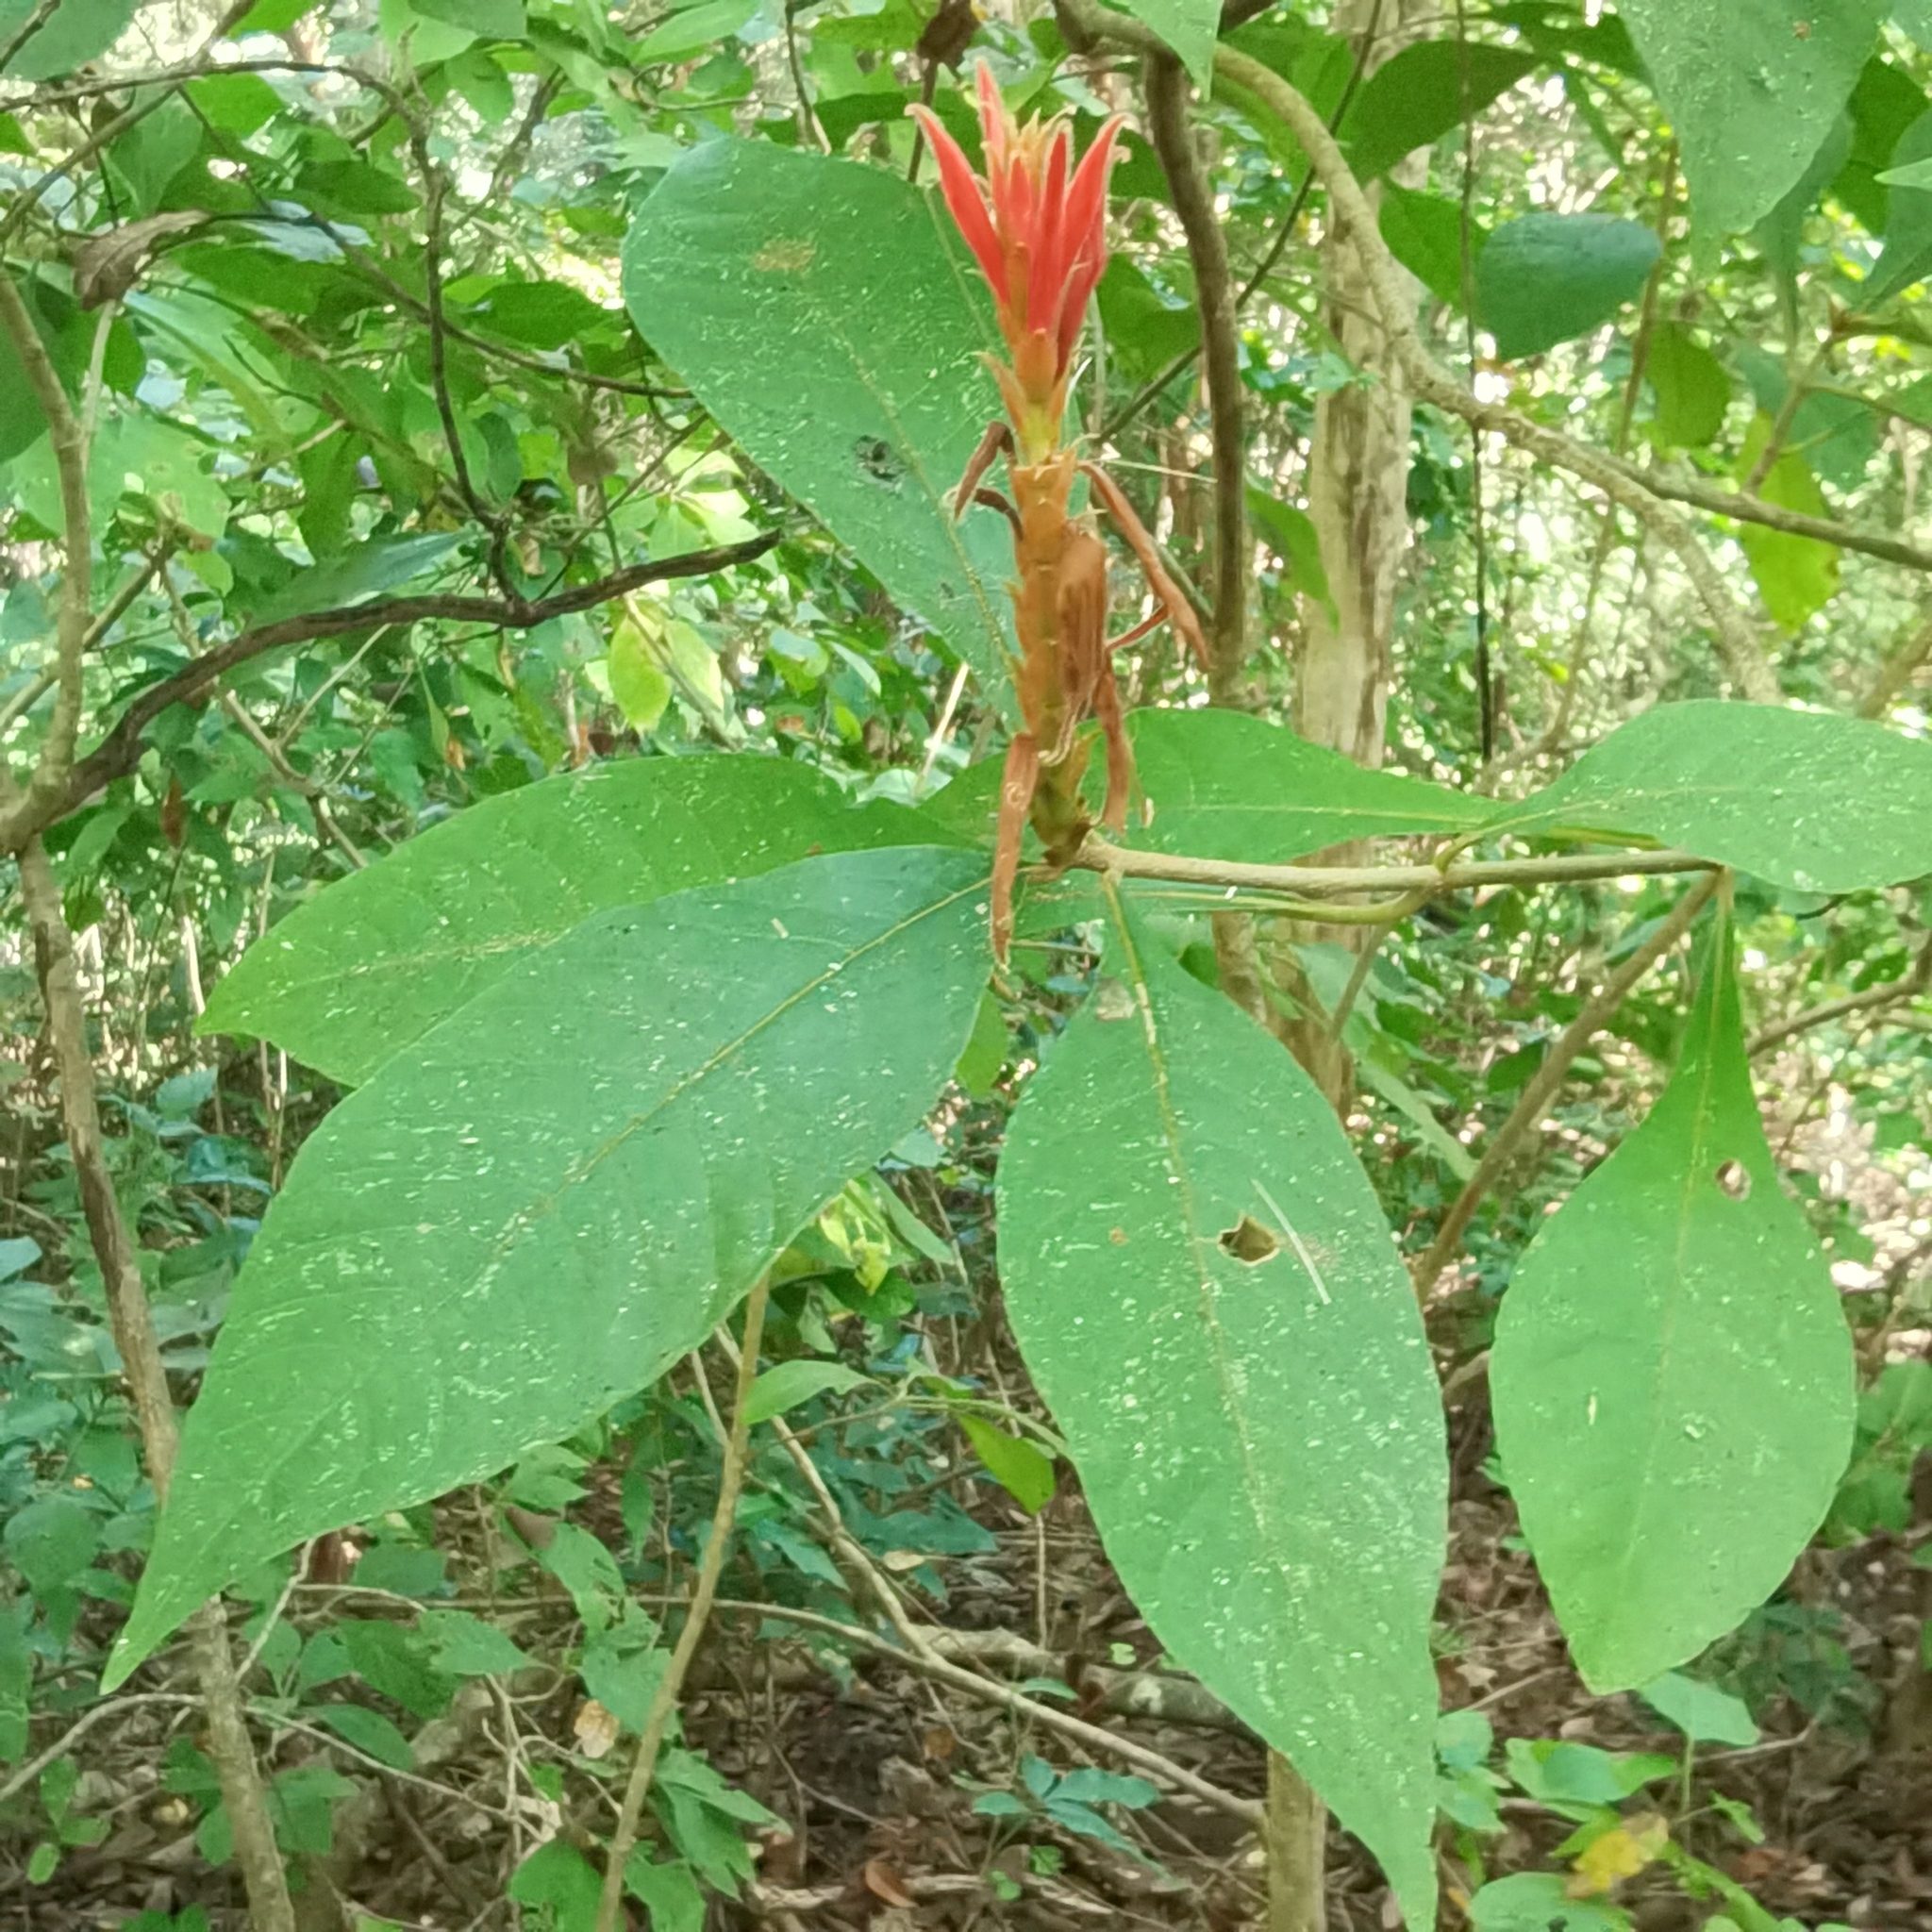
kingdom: Plantae
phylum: Tracheophyta
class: Magnoliopsida
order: Lamiales
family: Acanthaceae
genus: Aphelandra
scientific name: Aphelandra scabra
